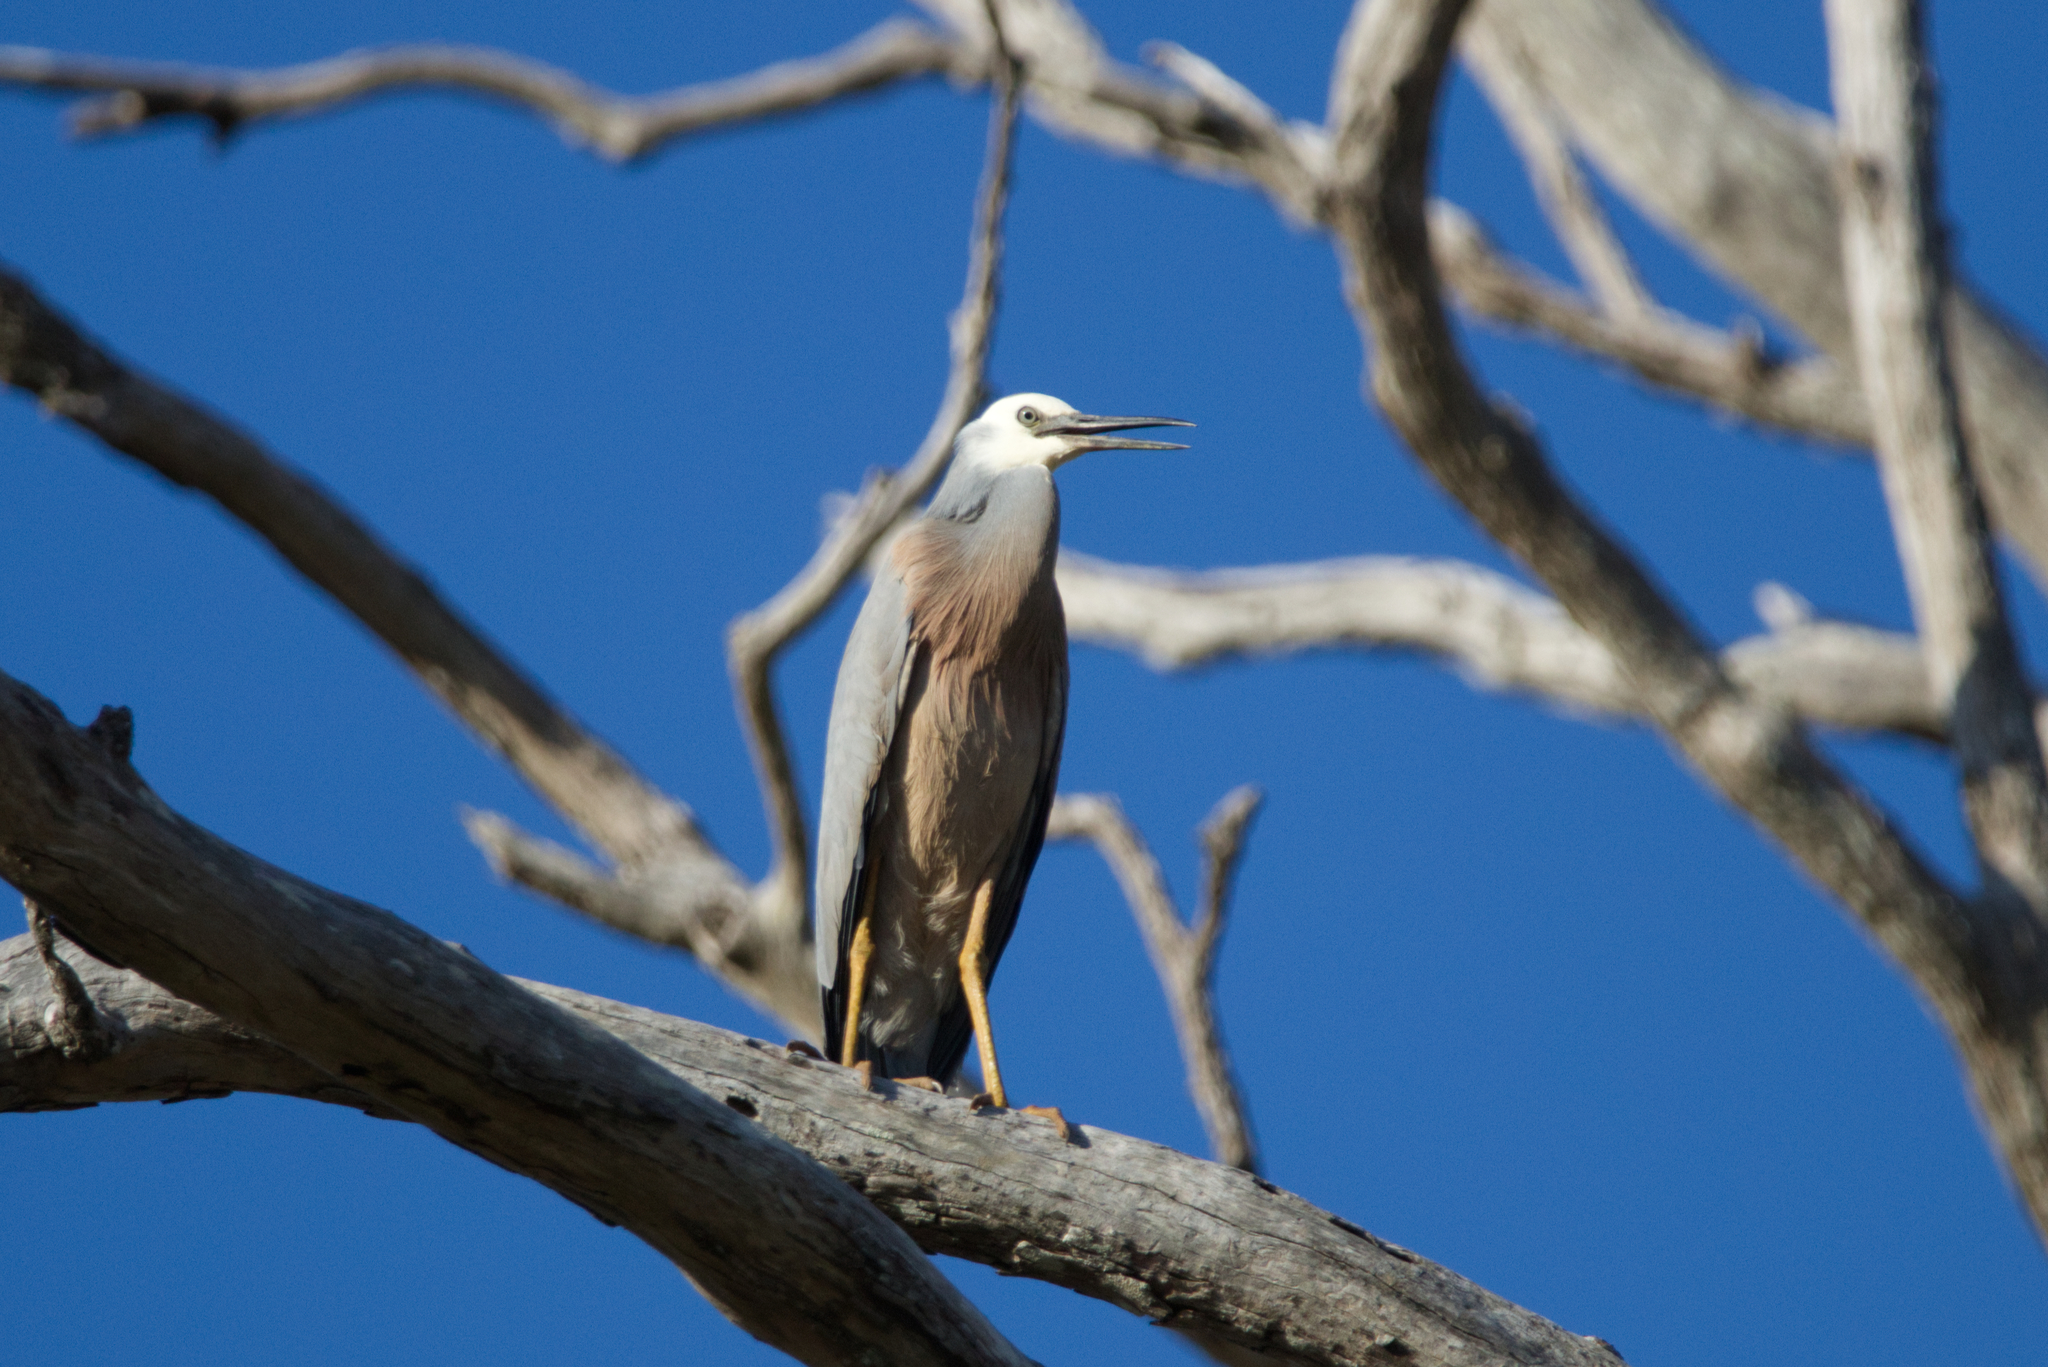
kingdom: Animalia
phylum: Chordata
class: Aves
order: Pelecaniformes
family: Ardeidae
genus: Egretta
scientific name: Egretta novaehollandiae
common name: White-faced heron
